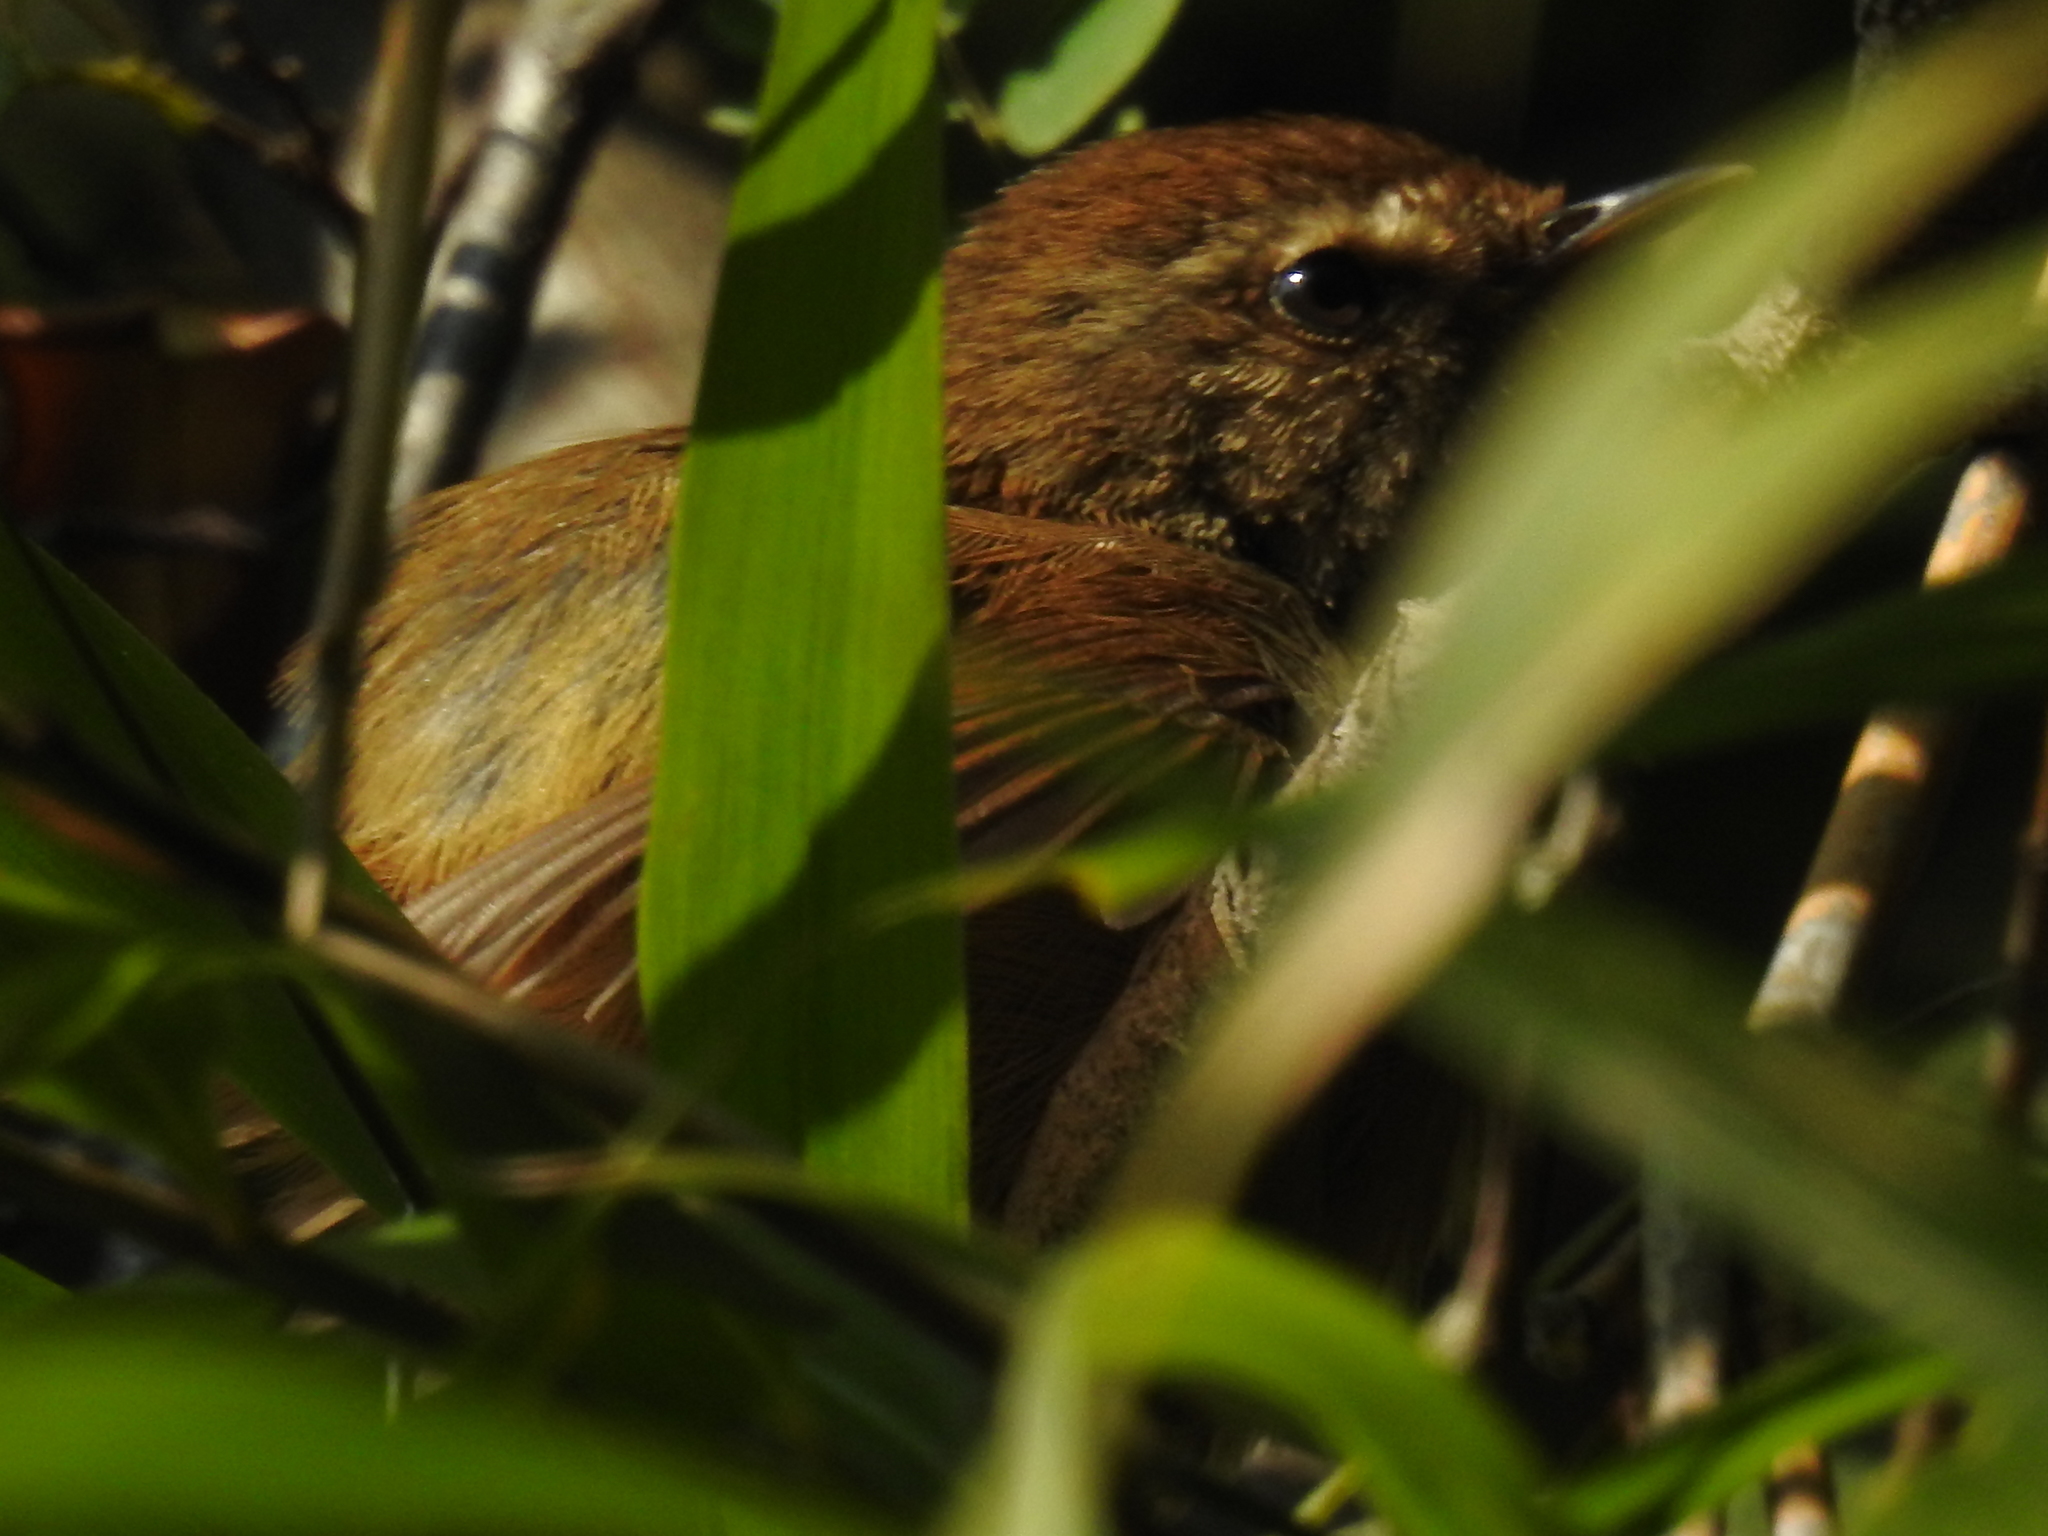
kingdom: Animalia
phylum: Chordata
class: Aves
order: Passeriformes
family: Cettiidae
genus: Horornis
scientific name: Horornis fortipes
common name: Brown-flanked bush warbler
